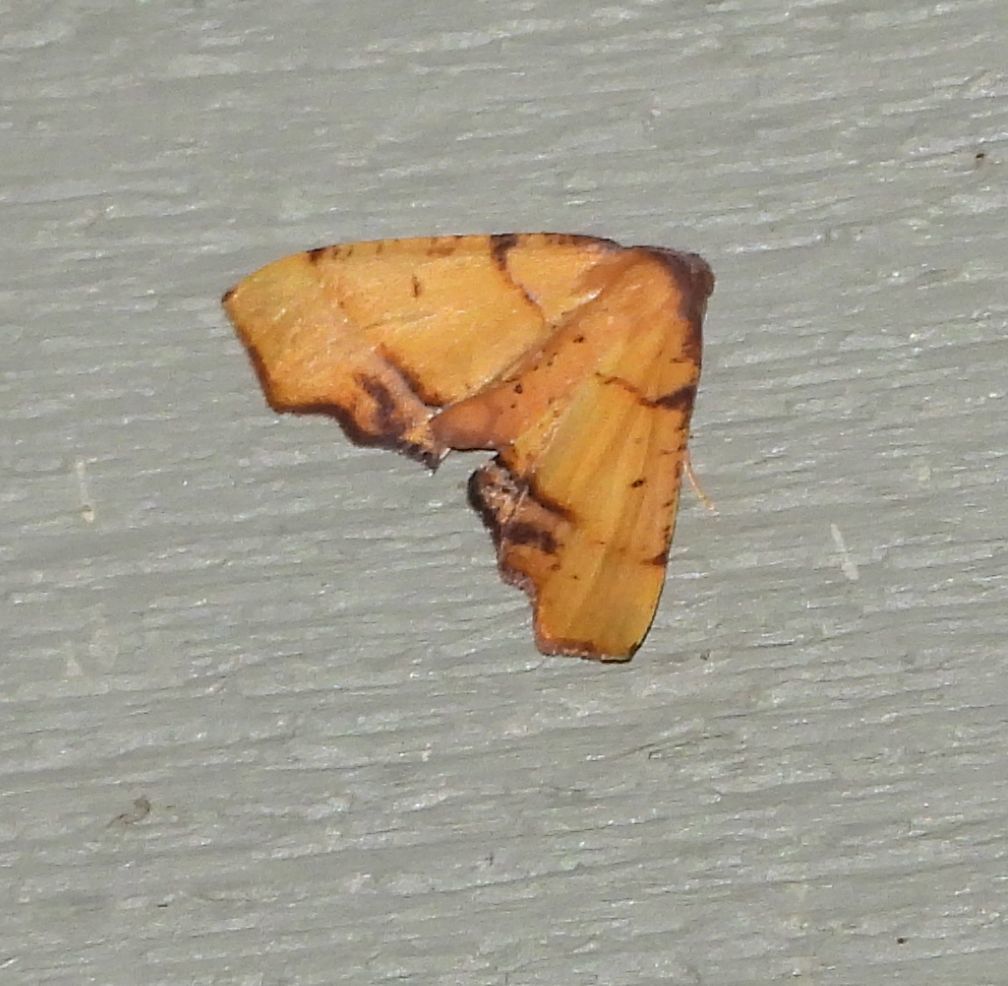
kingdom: Animalia
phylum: Arthropoda
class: Insecta
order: Lepidoptera
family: Geometridae
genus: Plagodis
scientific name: Plagodis phlogosaria
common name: Straight-lined plagodis
